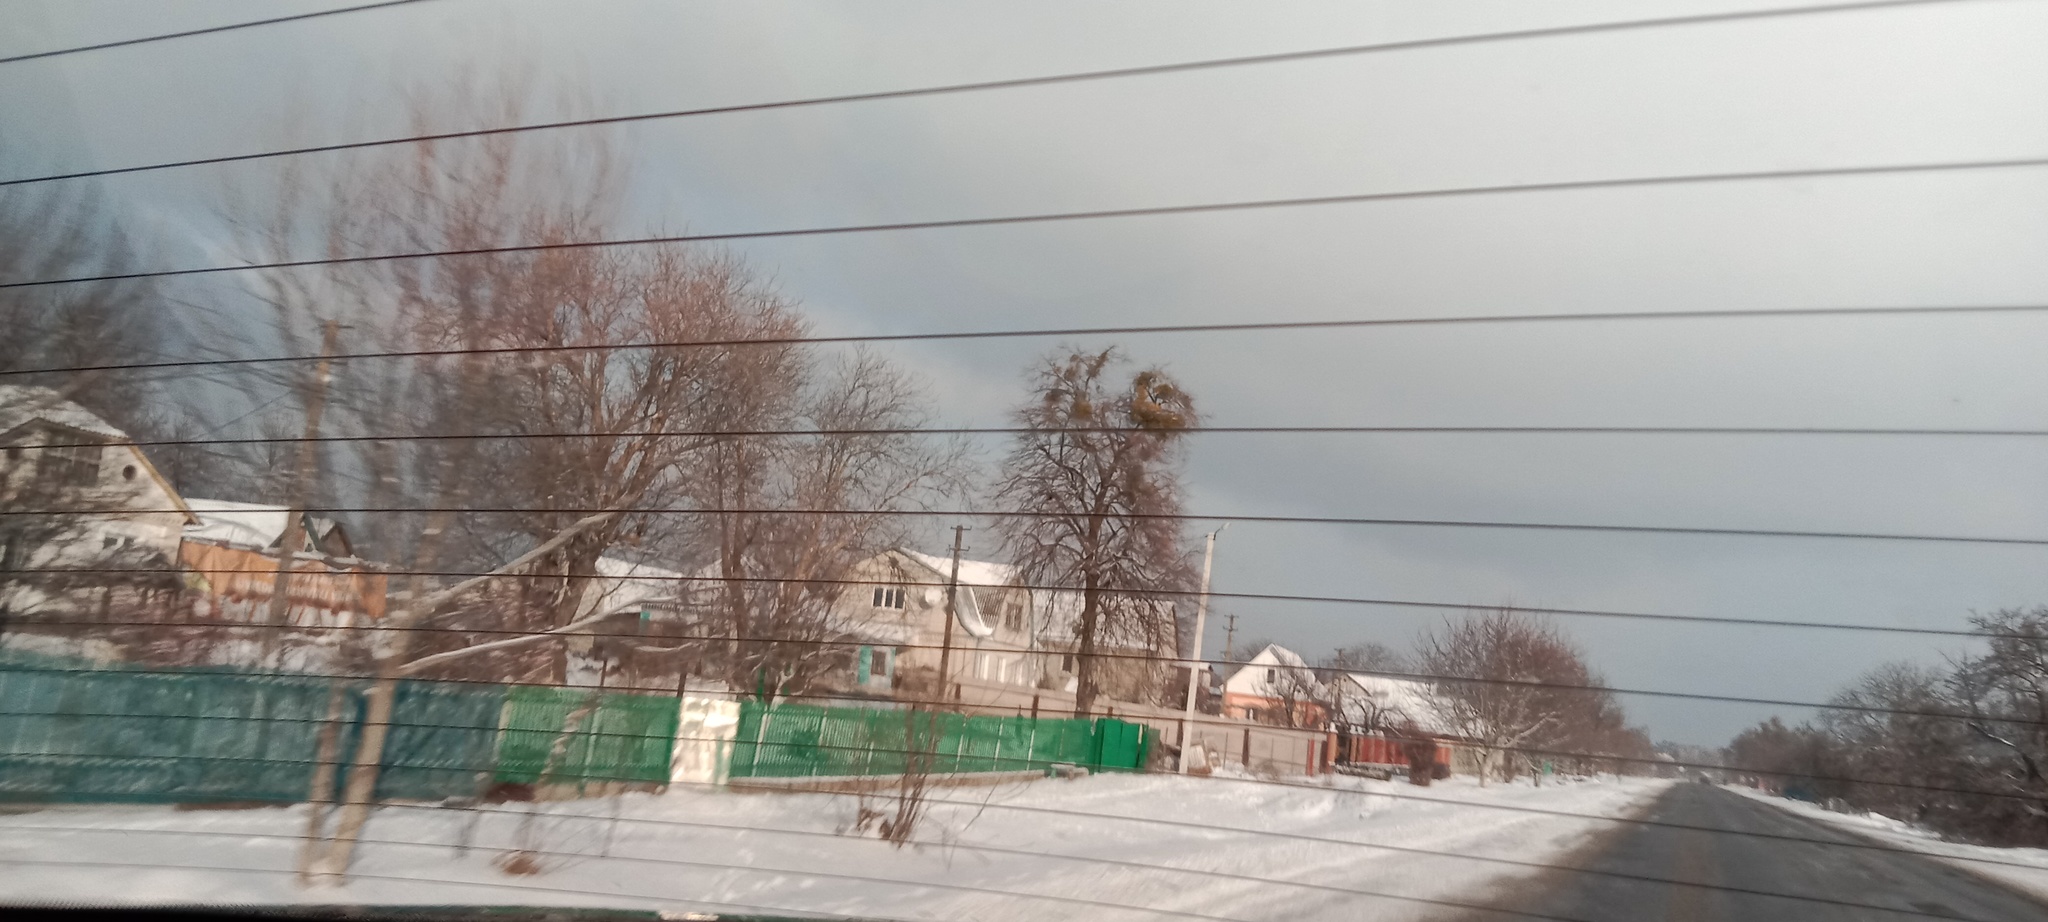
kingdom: Plantae
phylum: Tracheophyta
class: Magnoliopsida
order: Santalales
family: Viscaceae
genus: Viscum
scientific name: Viscum album
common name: Mistletoe
